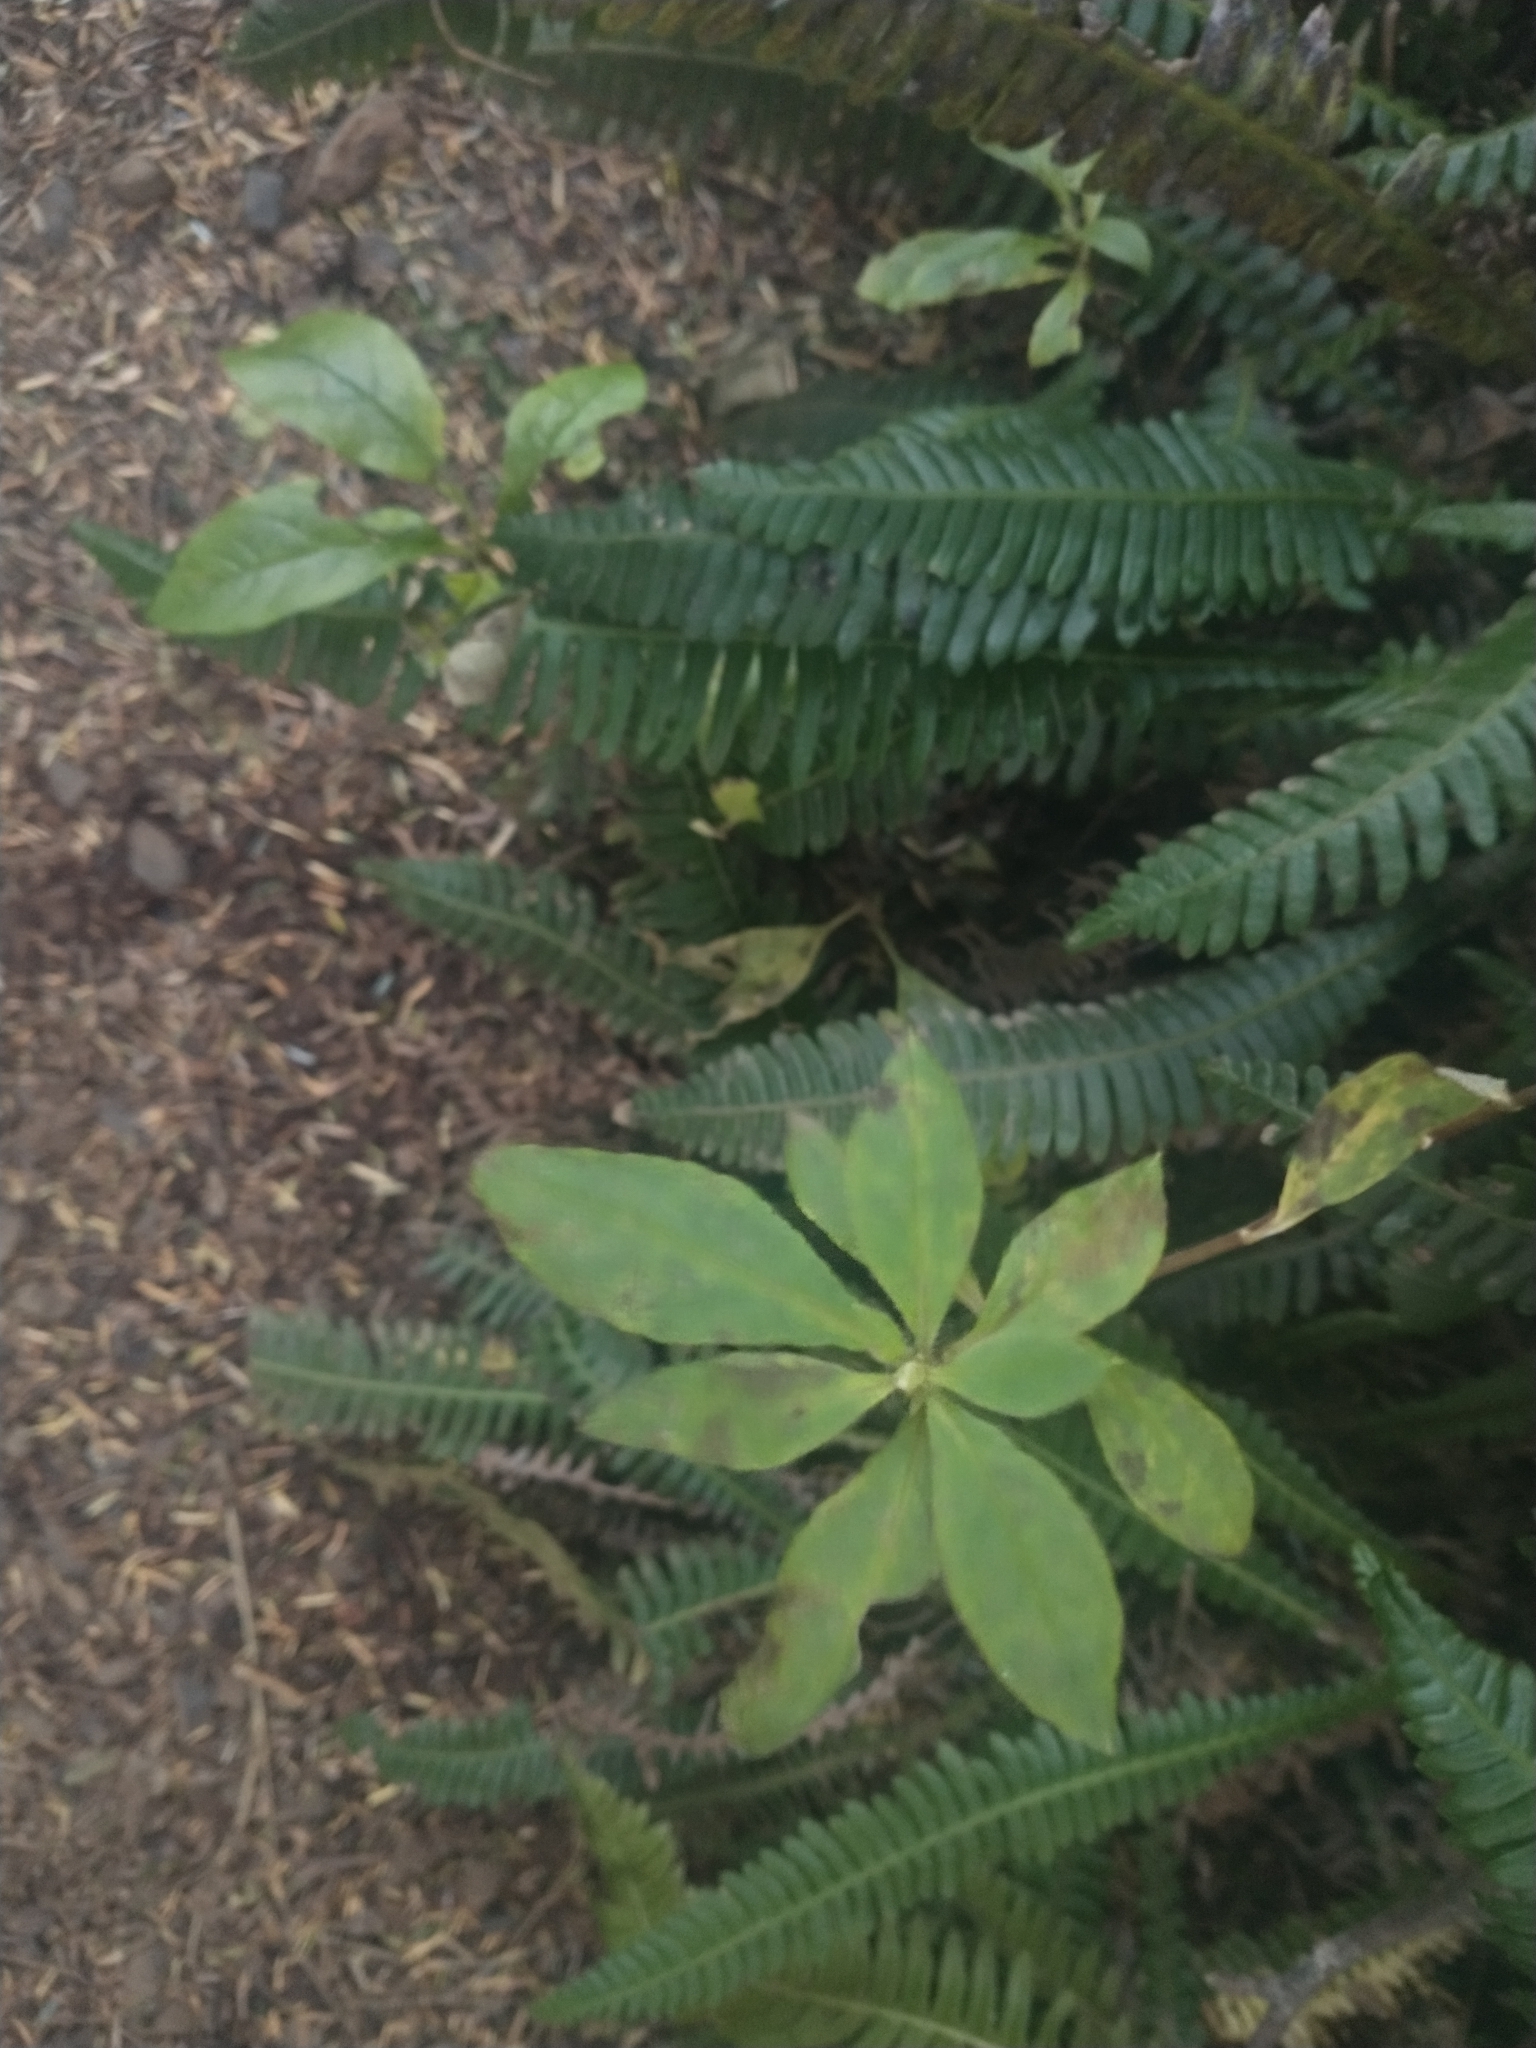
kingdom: Plantae
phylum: Tracheophyta
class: Magnoliopsida
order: Ericales
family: Ericaceae
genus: Rhododendron
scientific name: Rhododendron menziesii
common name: Pacific menziesia
